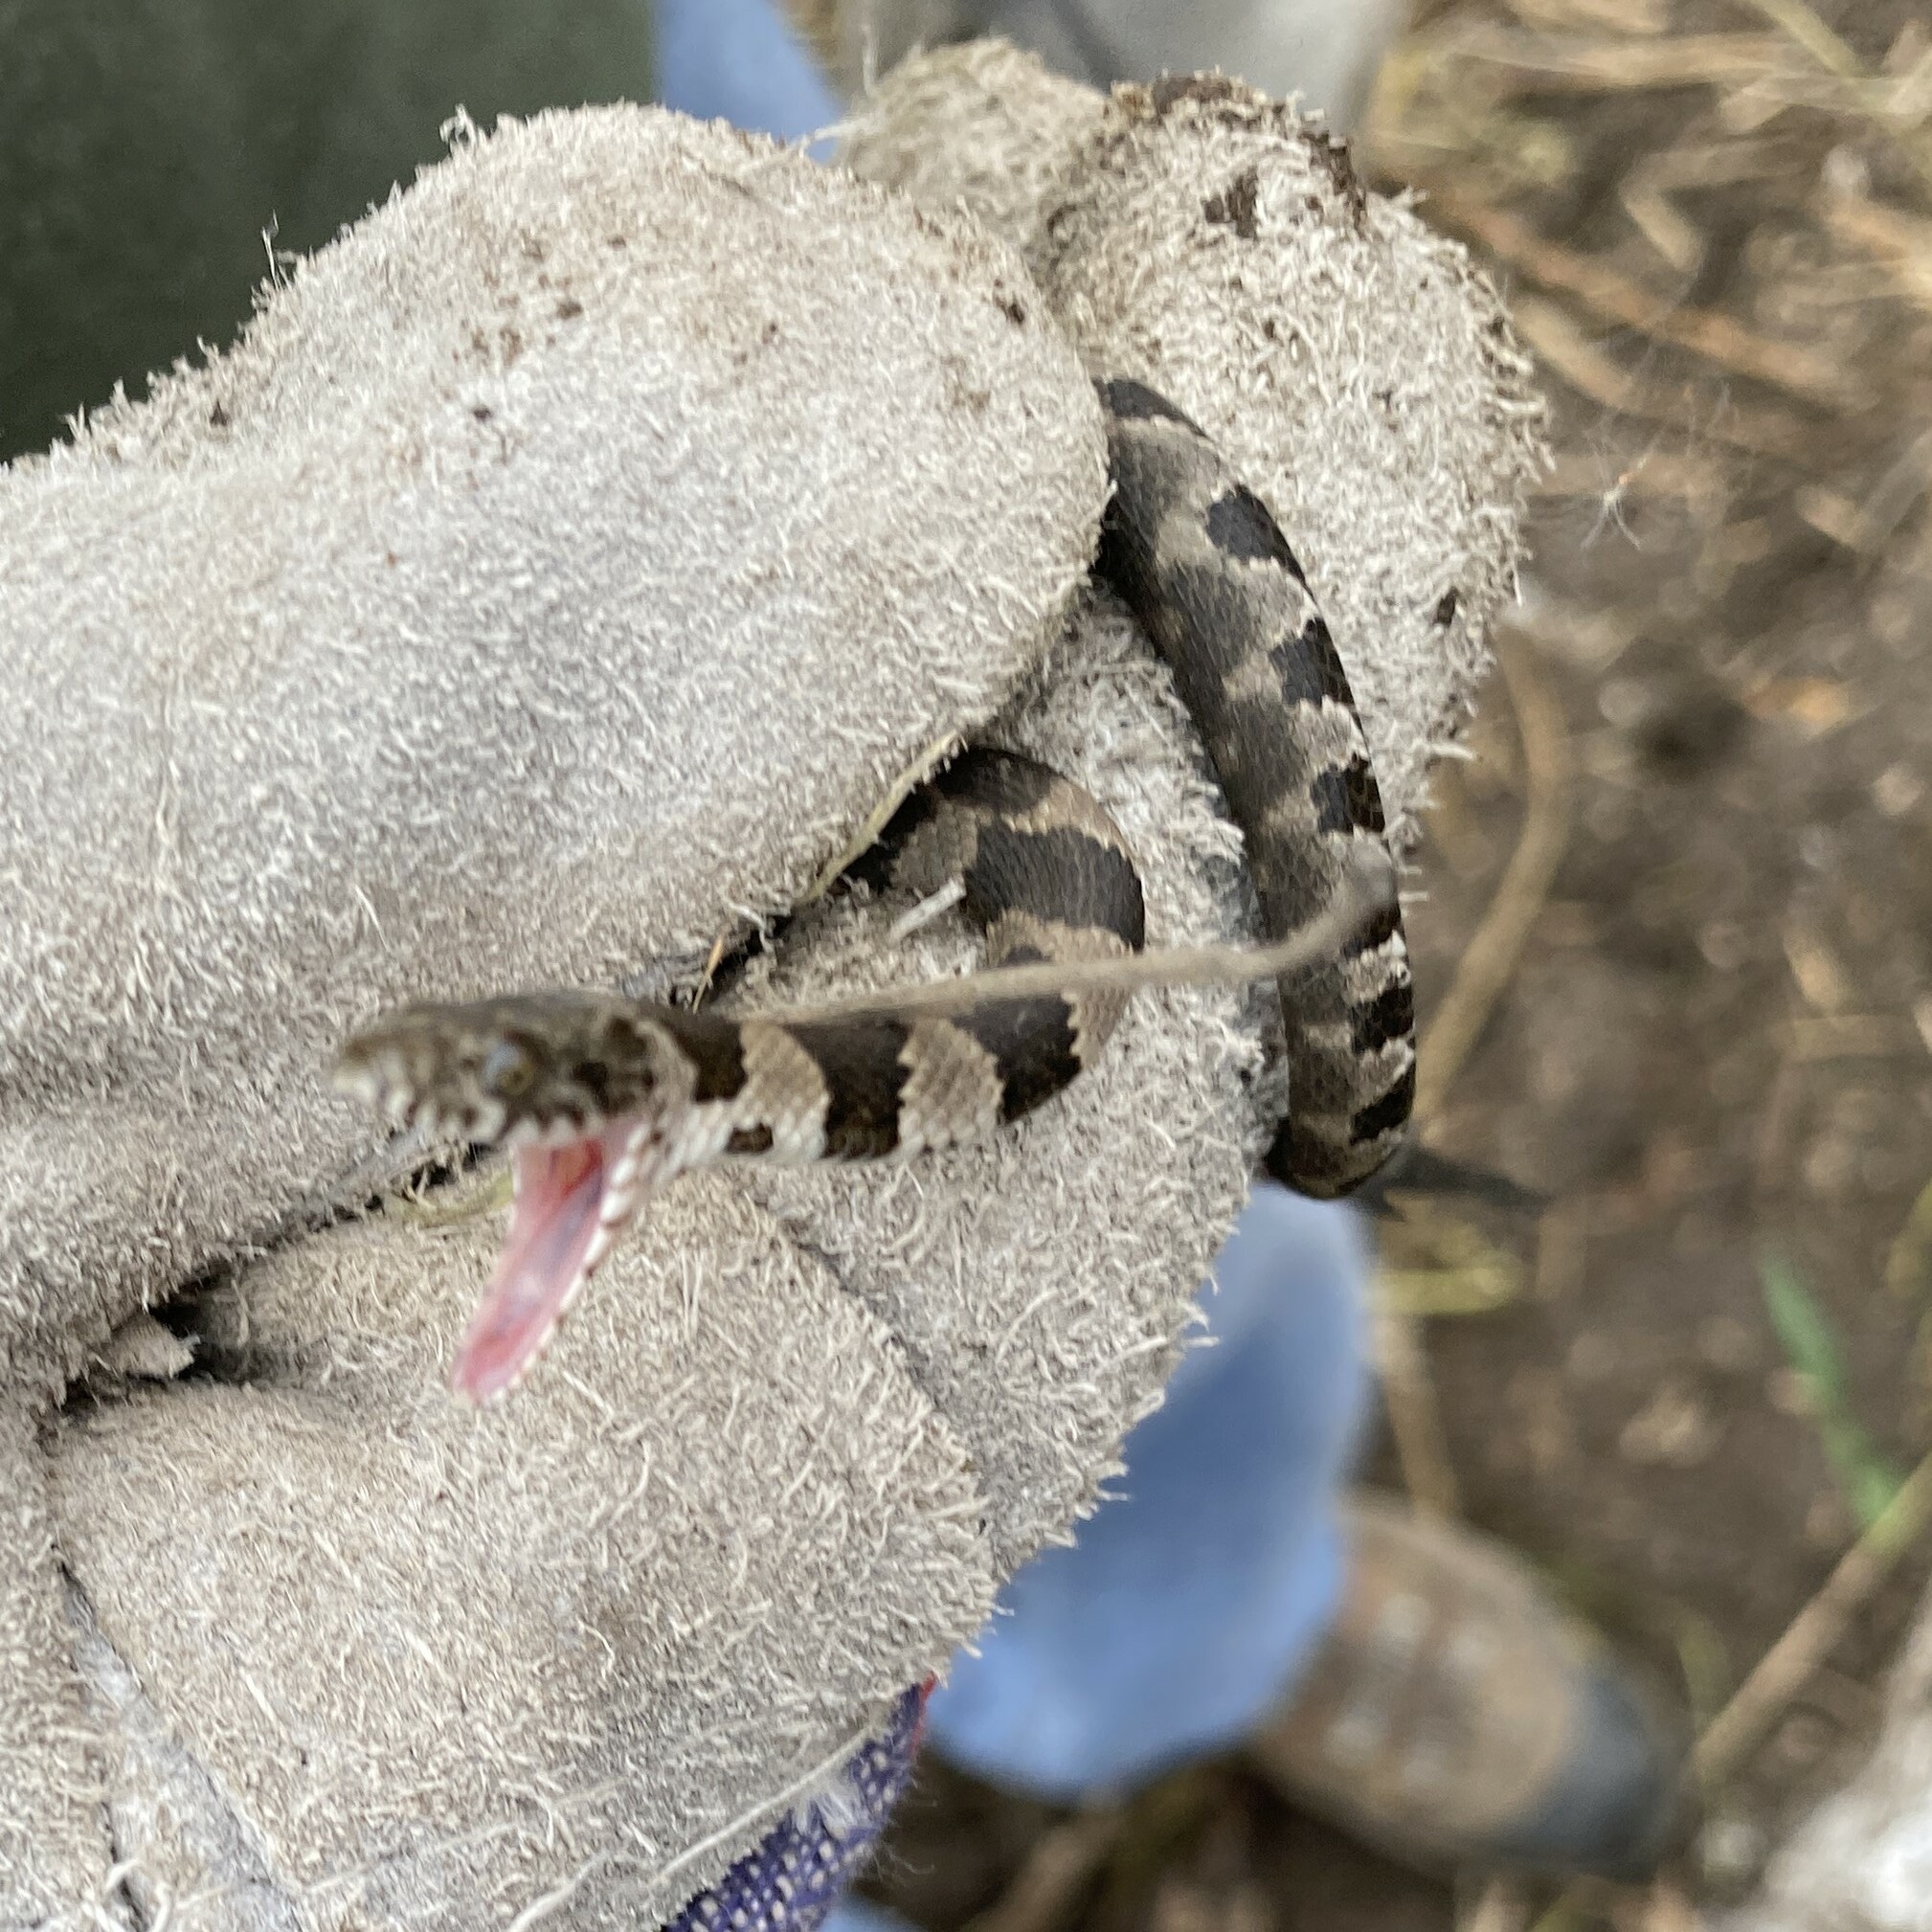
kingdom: Animalia
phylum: Chordata
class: Squamata
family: Colubridae
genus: Nerodia
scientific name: Nerodia sipedon
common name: Northern water snake
